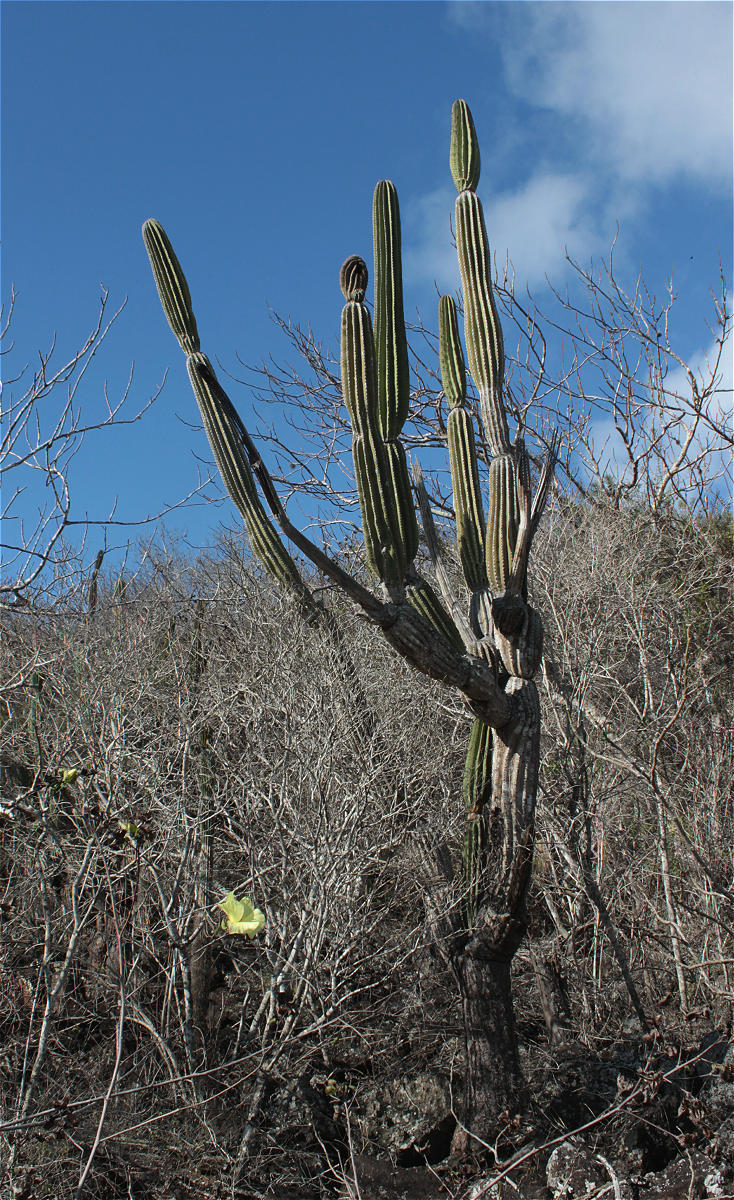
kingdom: Plantae
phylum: Tracheophyta
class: Magnoliopsida
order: Caryophyllales
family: Cactaceae
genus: Jasminocereus
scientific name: Jasminocereus thouarsii
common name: Candelabra cactus
